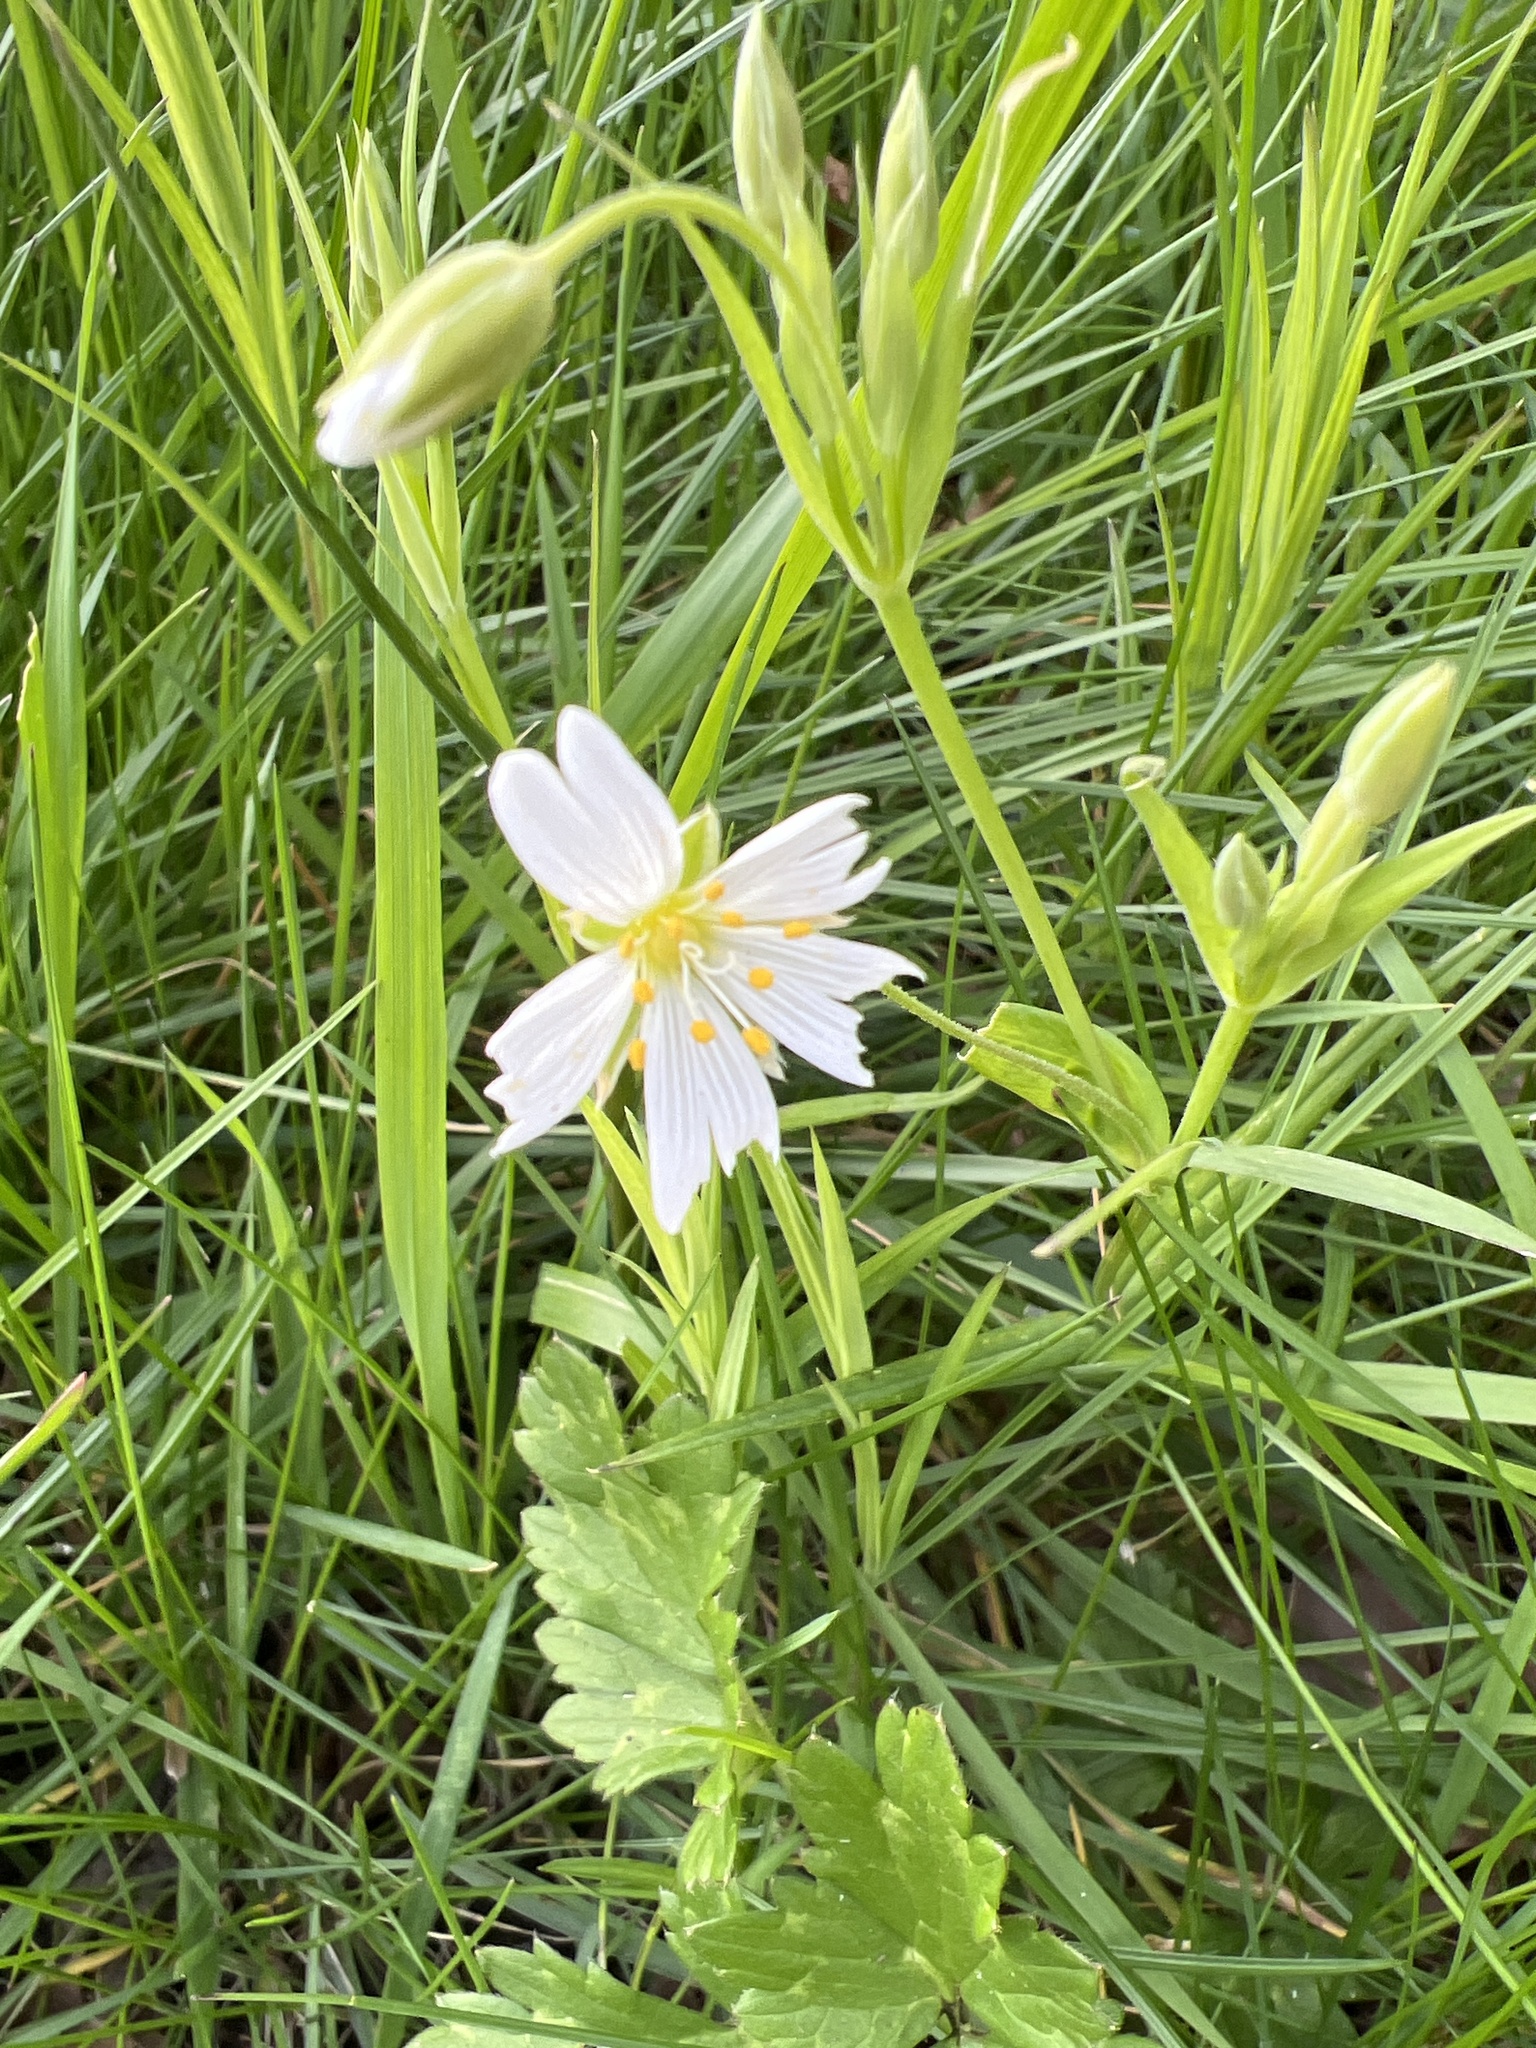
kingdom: Plantae
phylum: Tracheophyta
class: Magnoliopsida
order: Caryophyllales
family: Caryophyllaceae
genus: Rabelera
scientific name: Rabelera holostea
